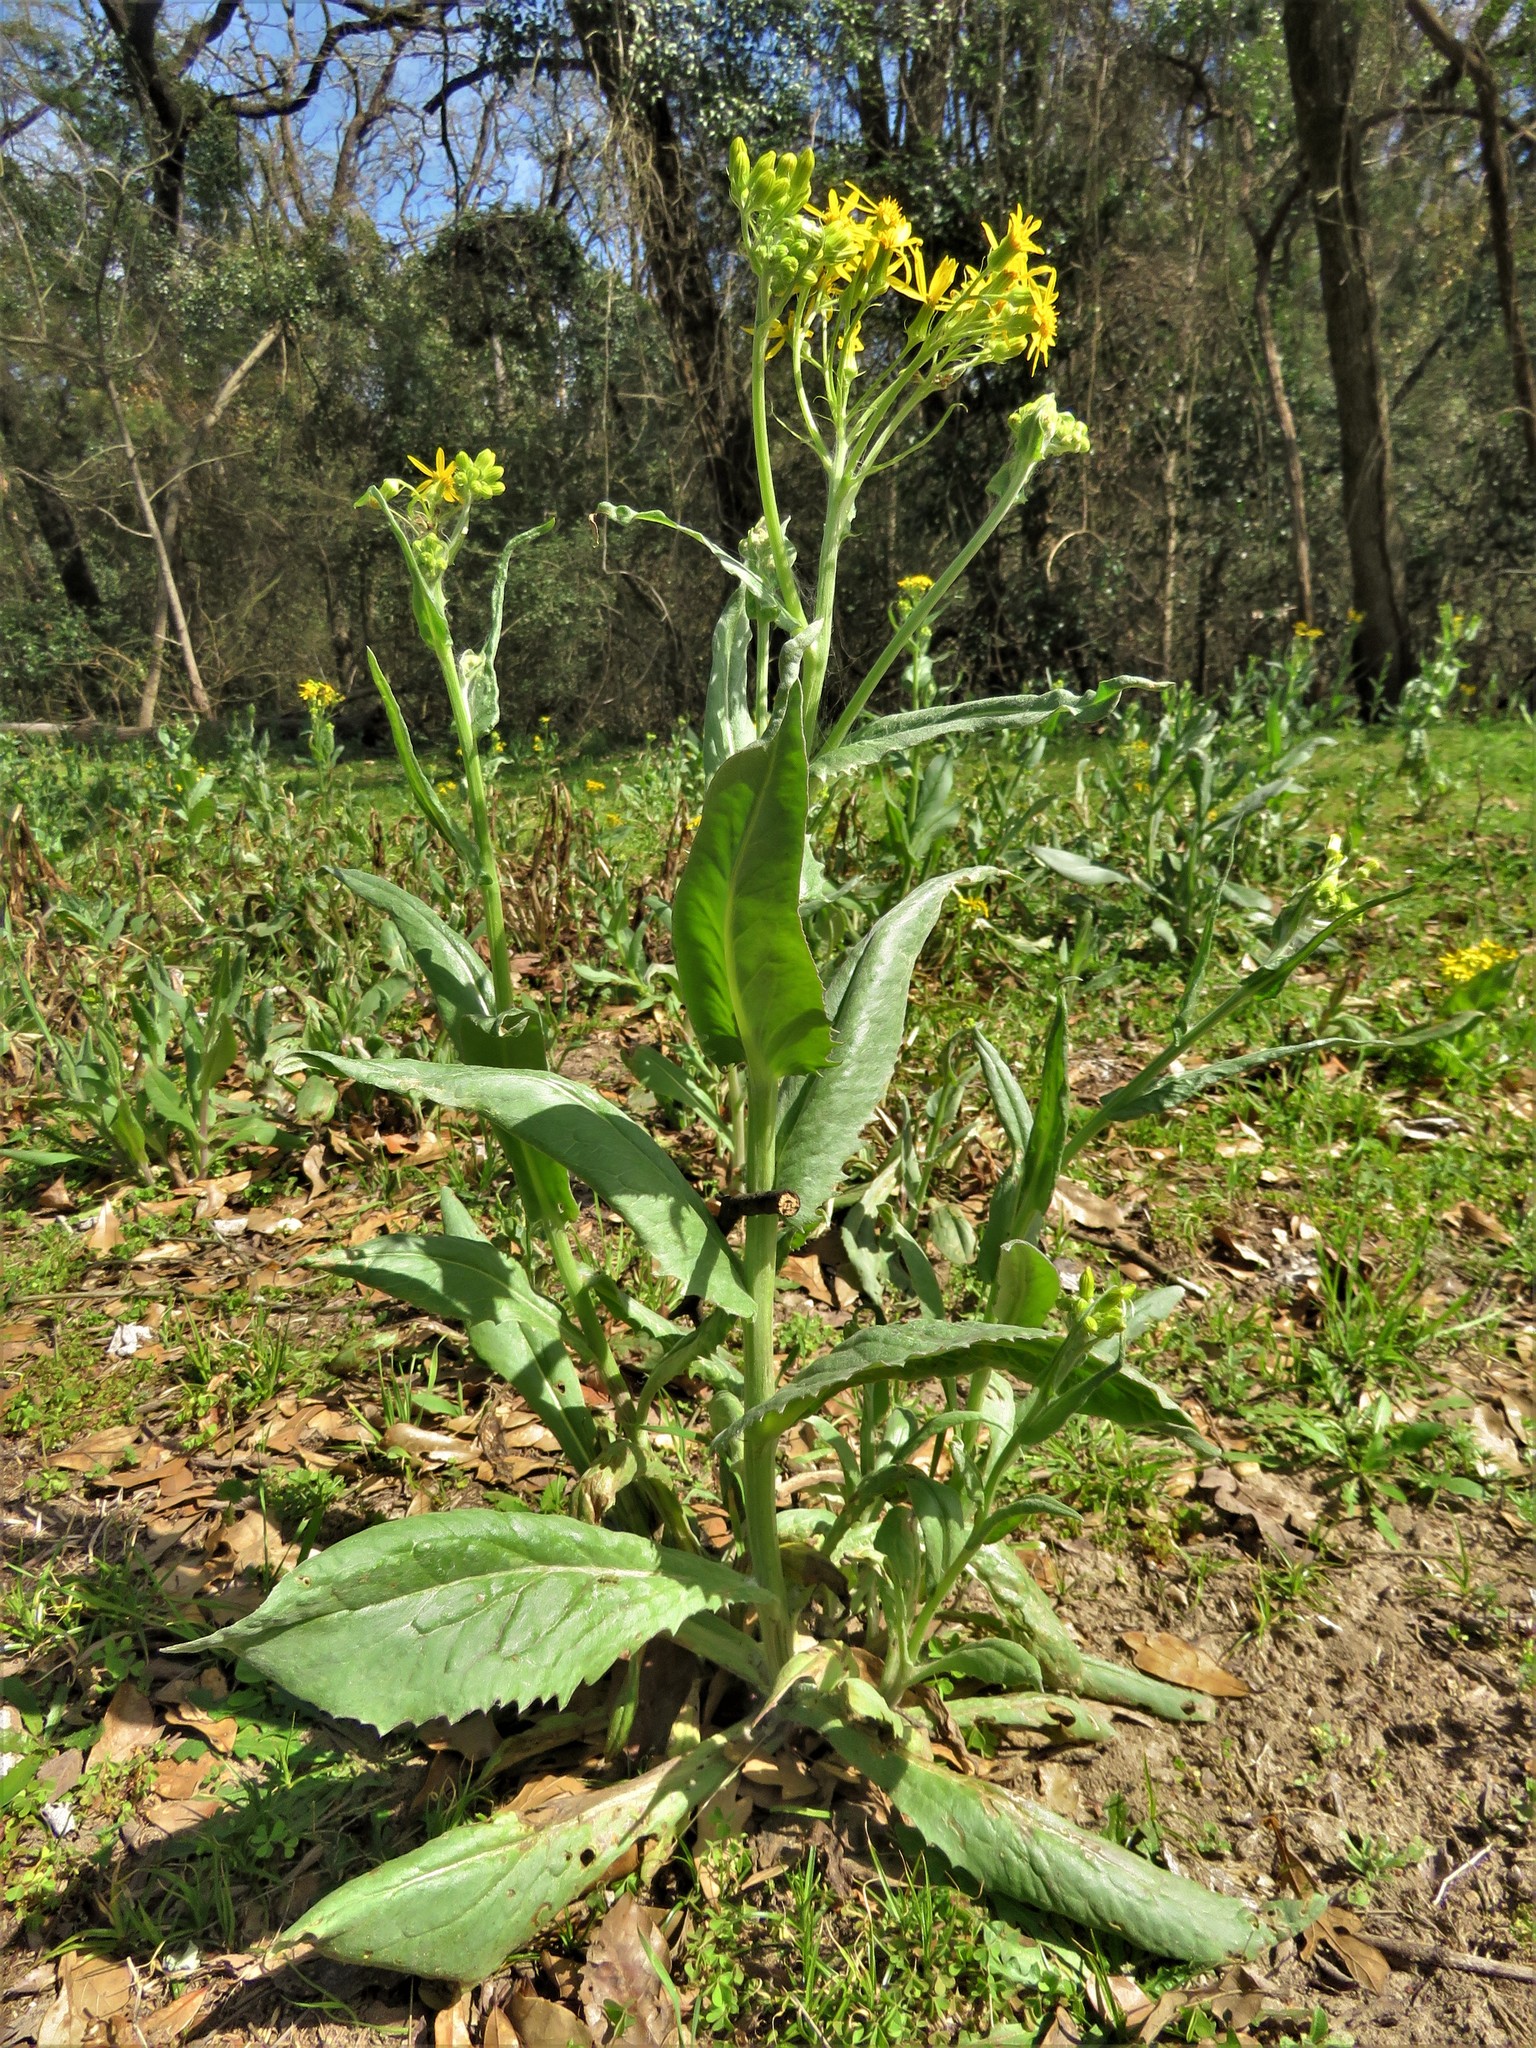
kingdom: Plantae
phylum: Tracheophyta
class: Magnoliopsida
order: Asterales
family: Asteraceae
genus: Senecio
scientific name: Senecio ampullaceus
